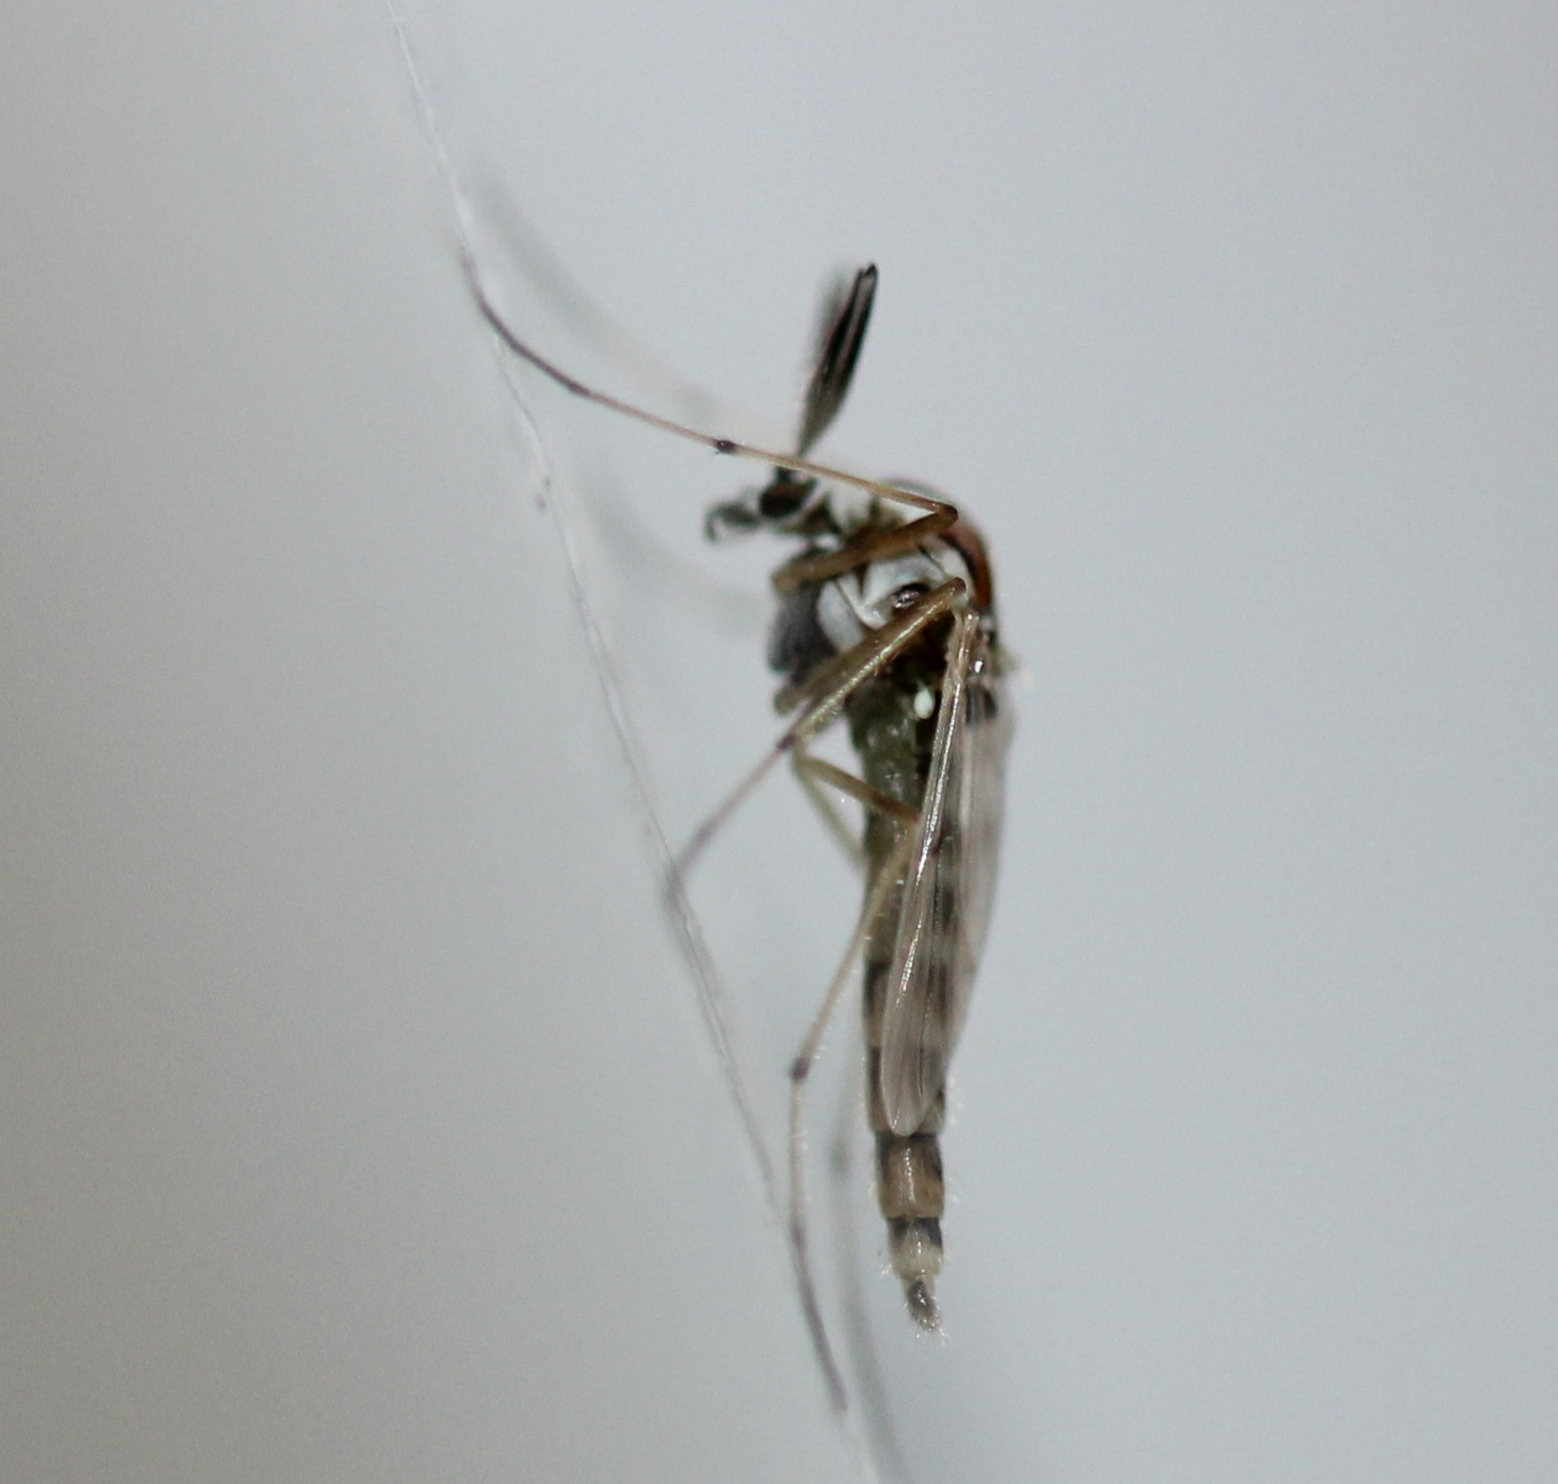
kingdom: Animalia
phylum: Arthropoda
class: Insecta
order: Diptera
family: Chironomidae
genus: Procladius
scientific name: Procladius bellus
